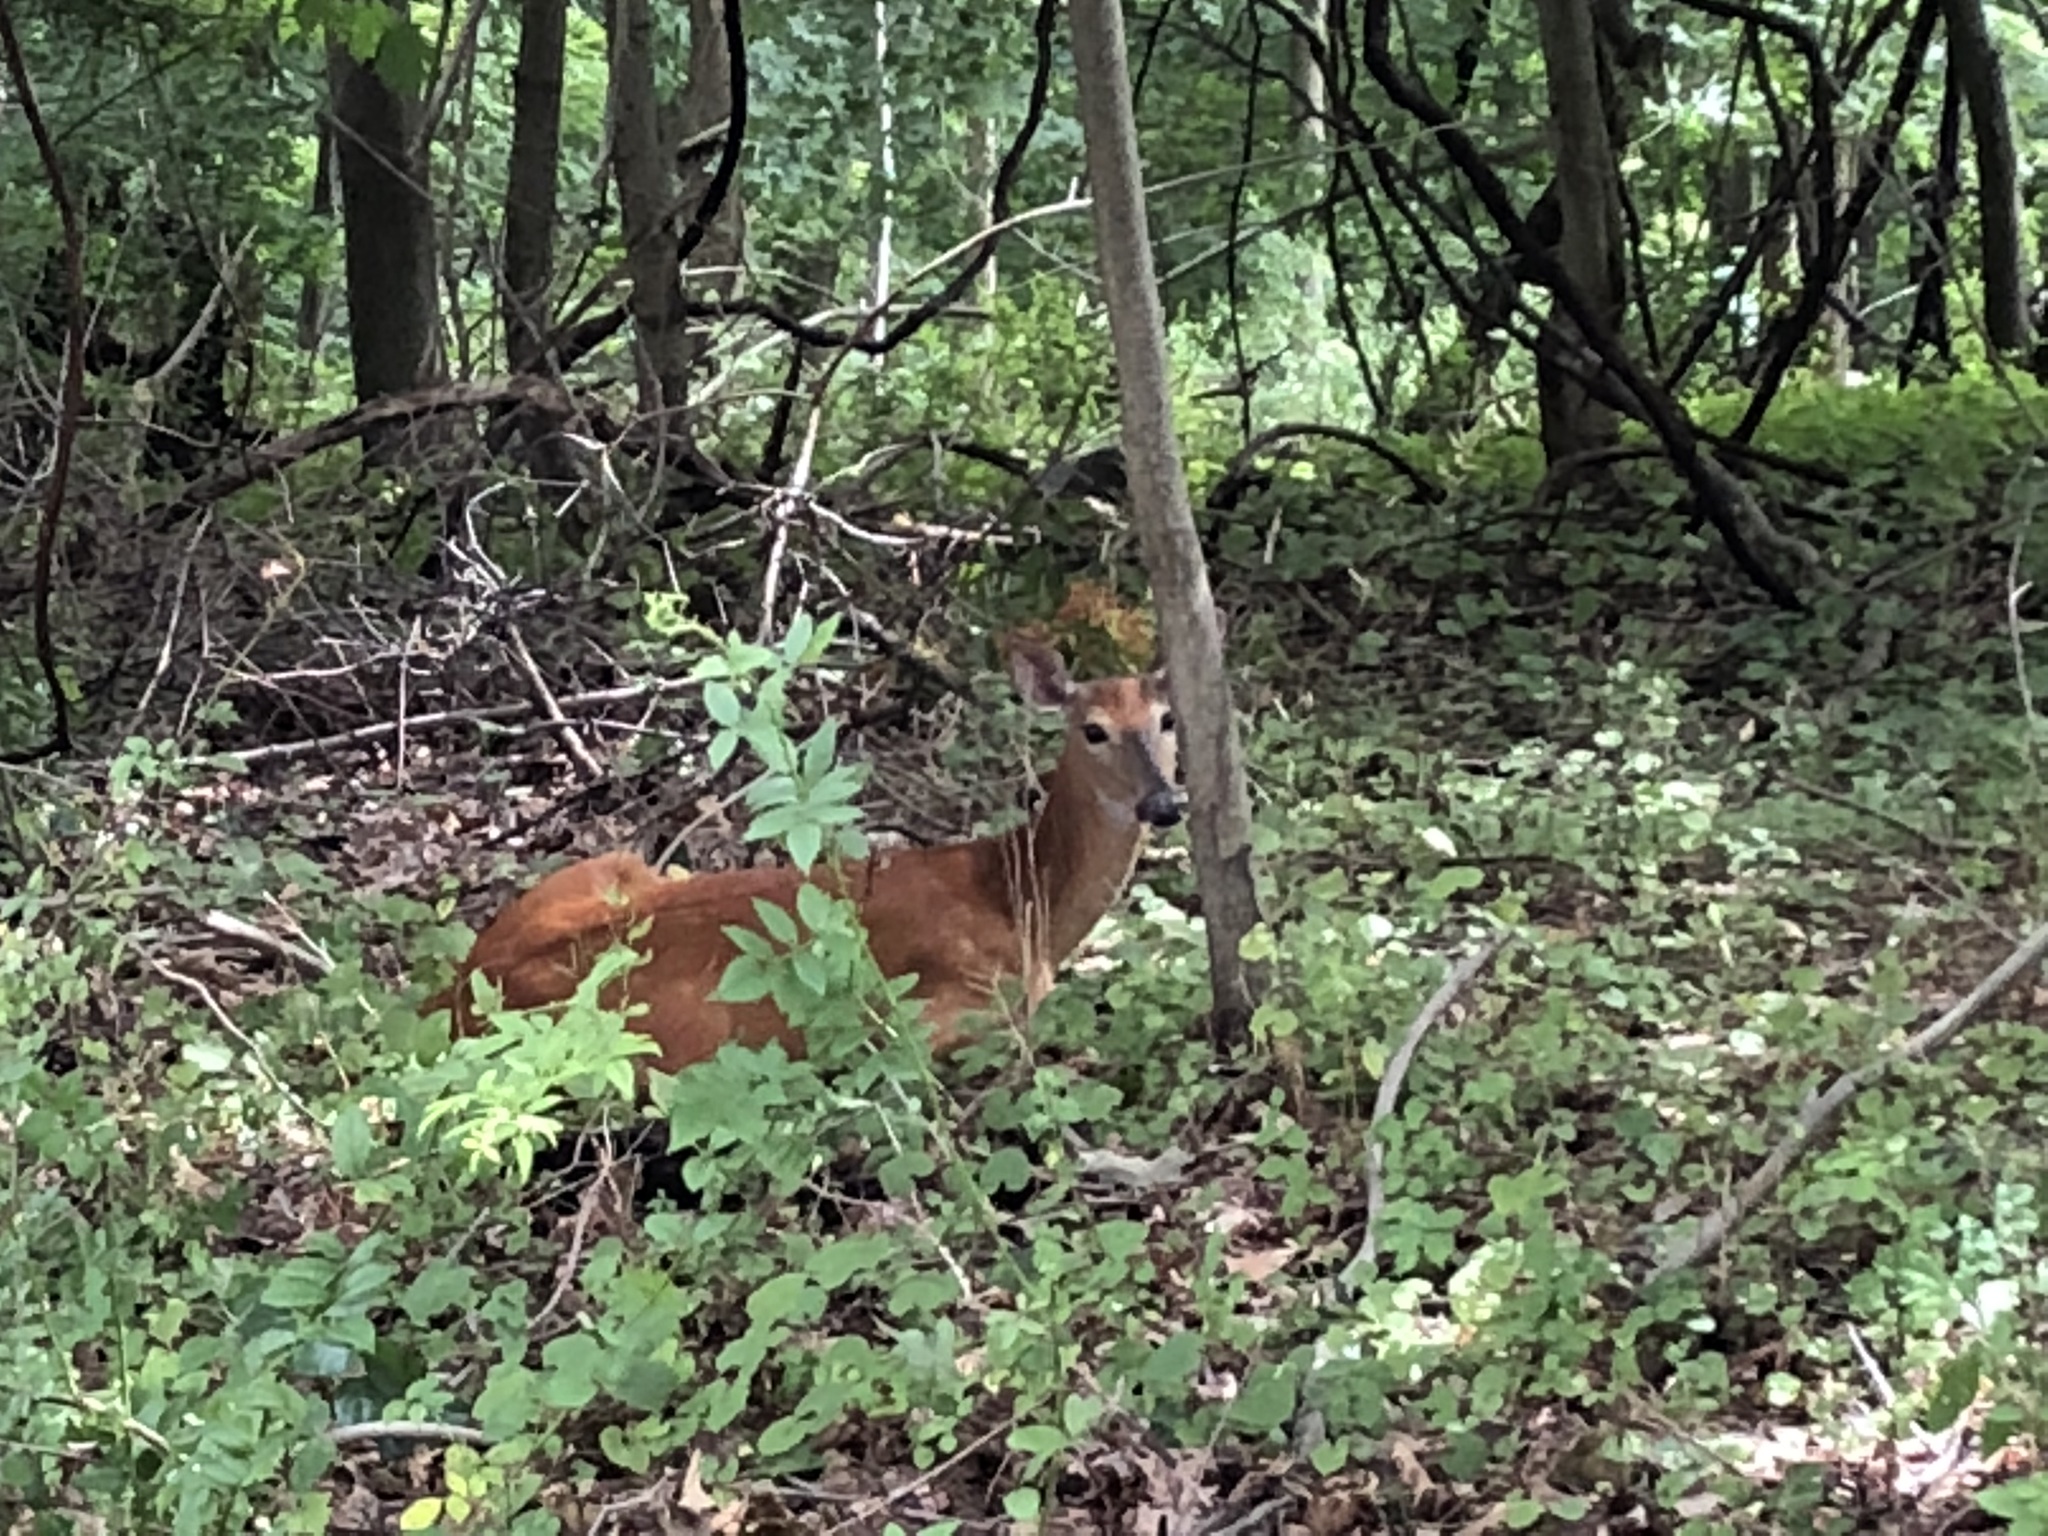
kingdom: Animalia
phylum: Chordata
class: Mammalia
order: Artiodactyla
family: Cervidae
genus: Odocoileus
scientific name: Odocoileus virginianus
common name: White-tailed deer
